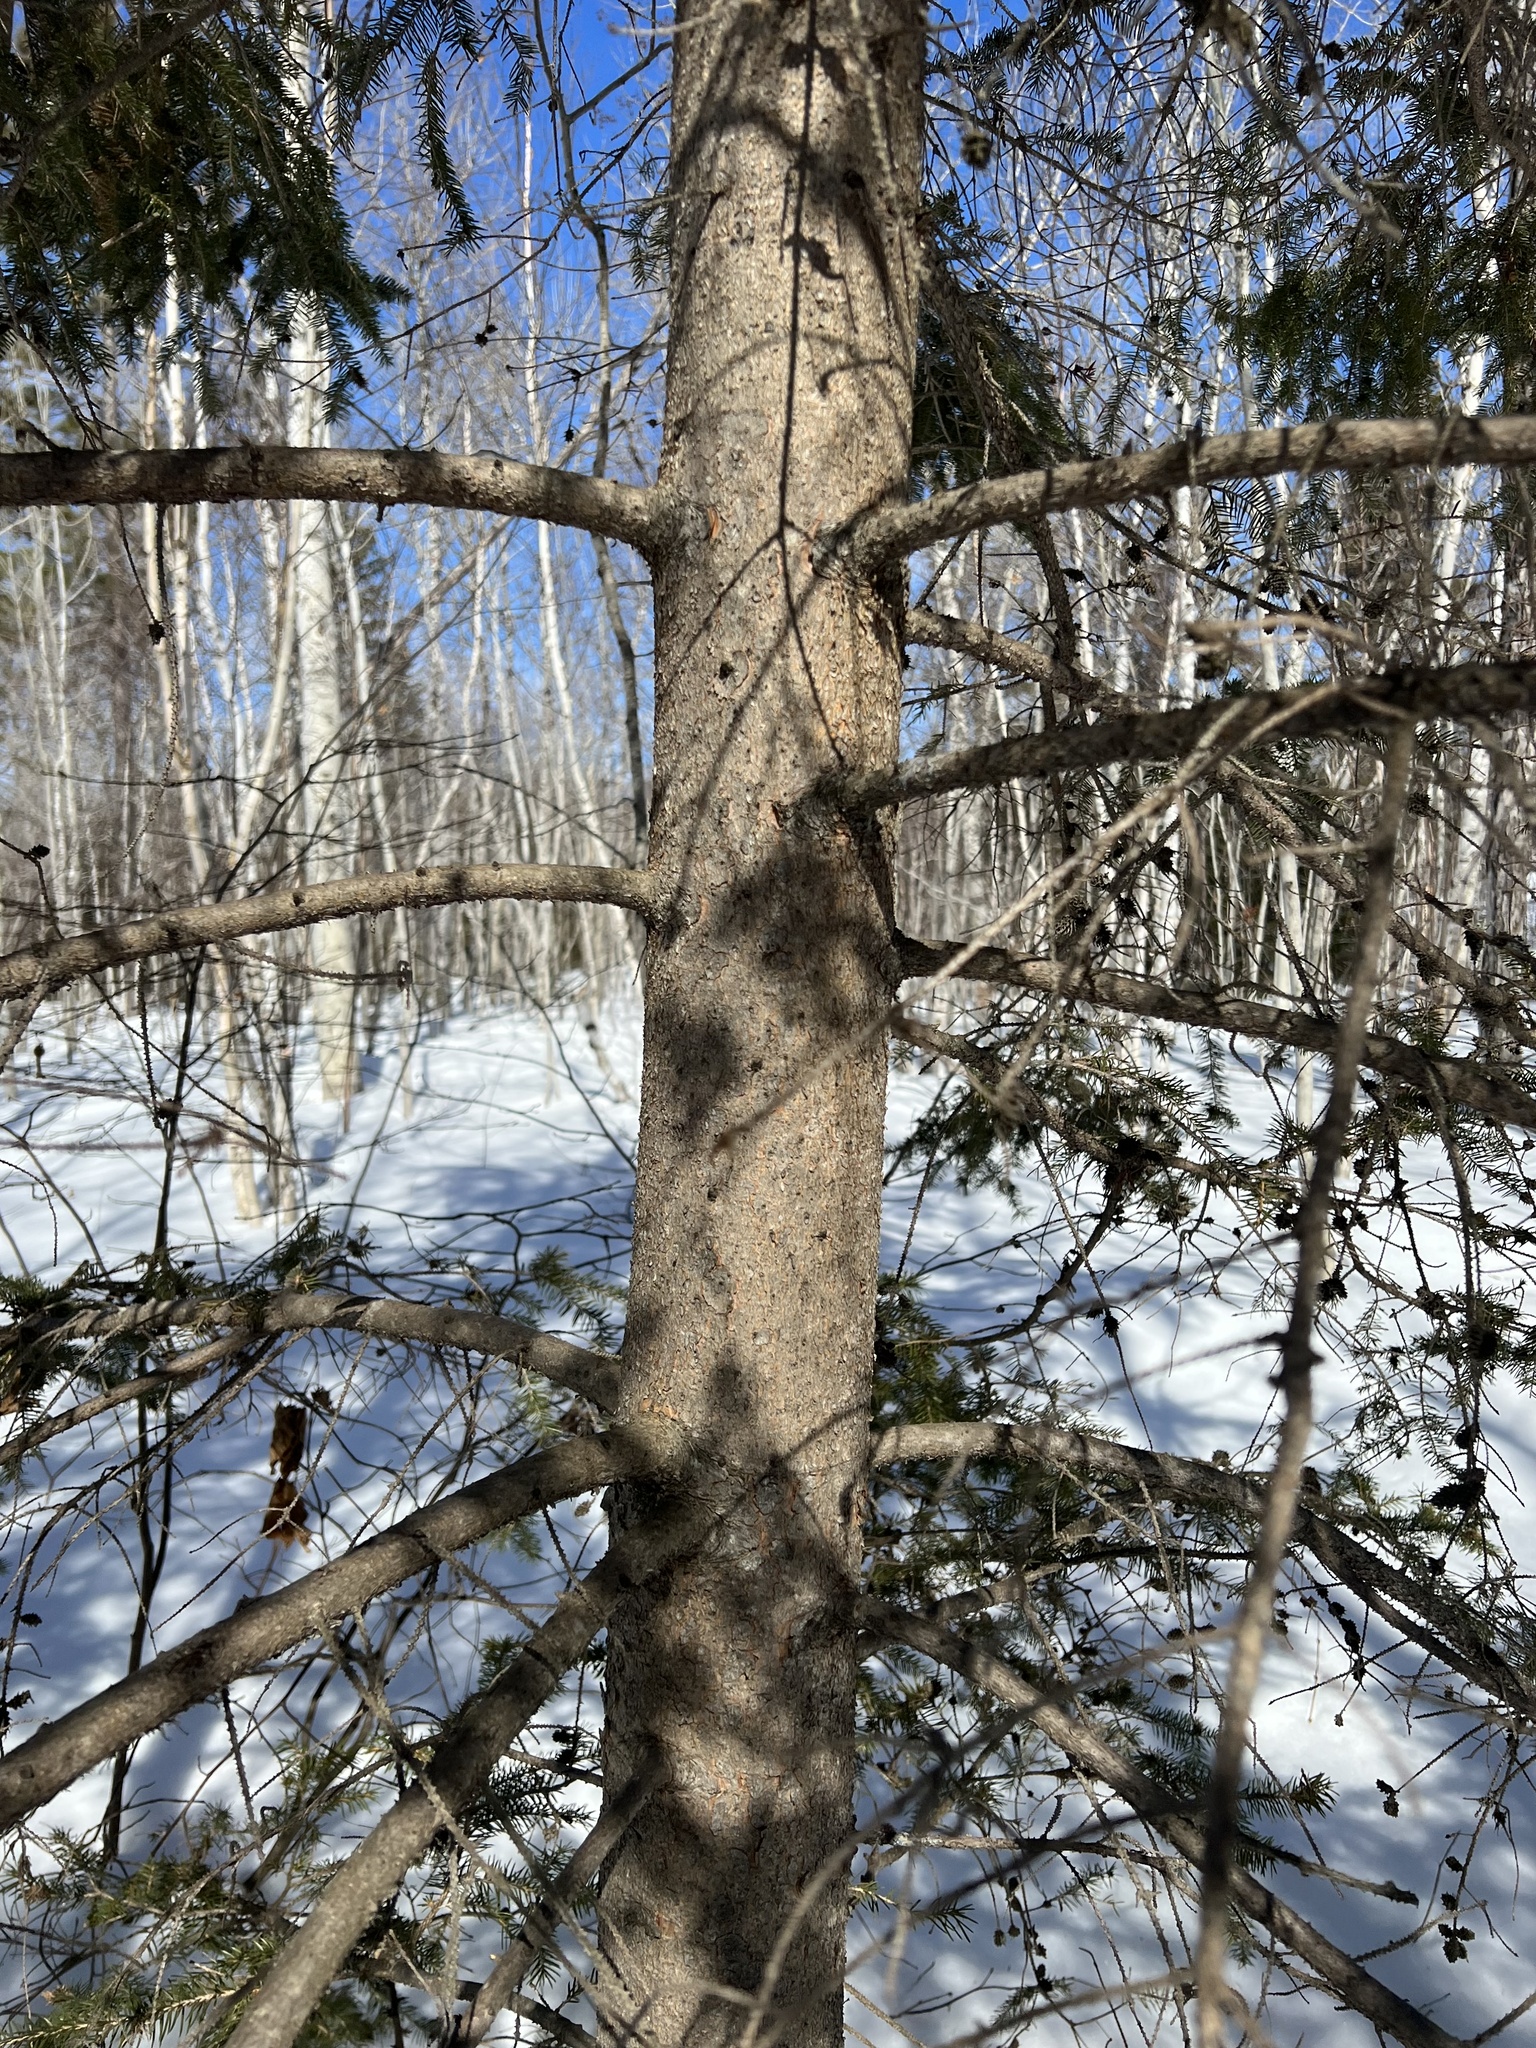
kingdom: Plantae
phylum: Tracheophyta
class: Pinopsida
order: Pinales
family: Pinaceae
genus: Picea
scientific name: Picea glauca
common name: White spruce
